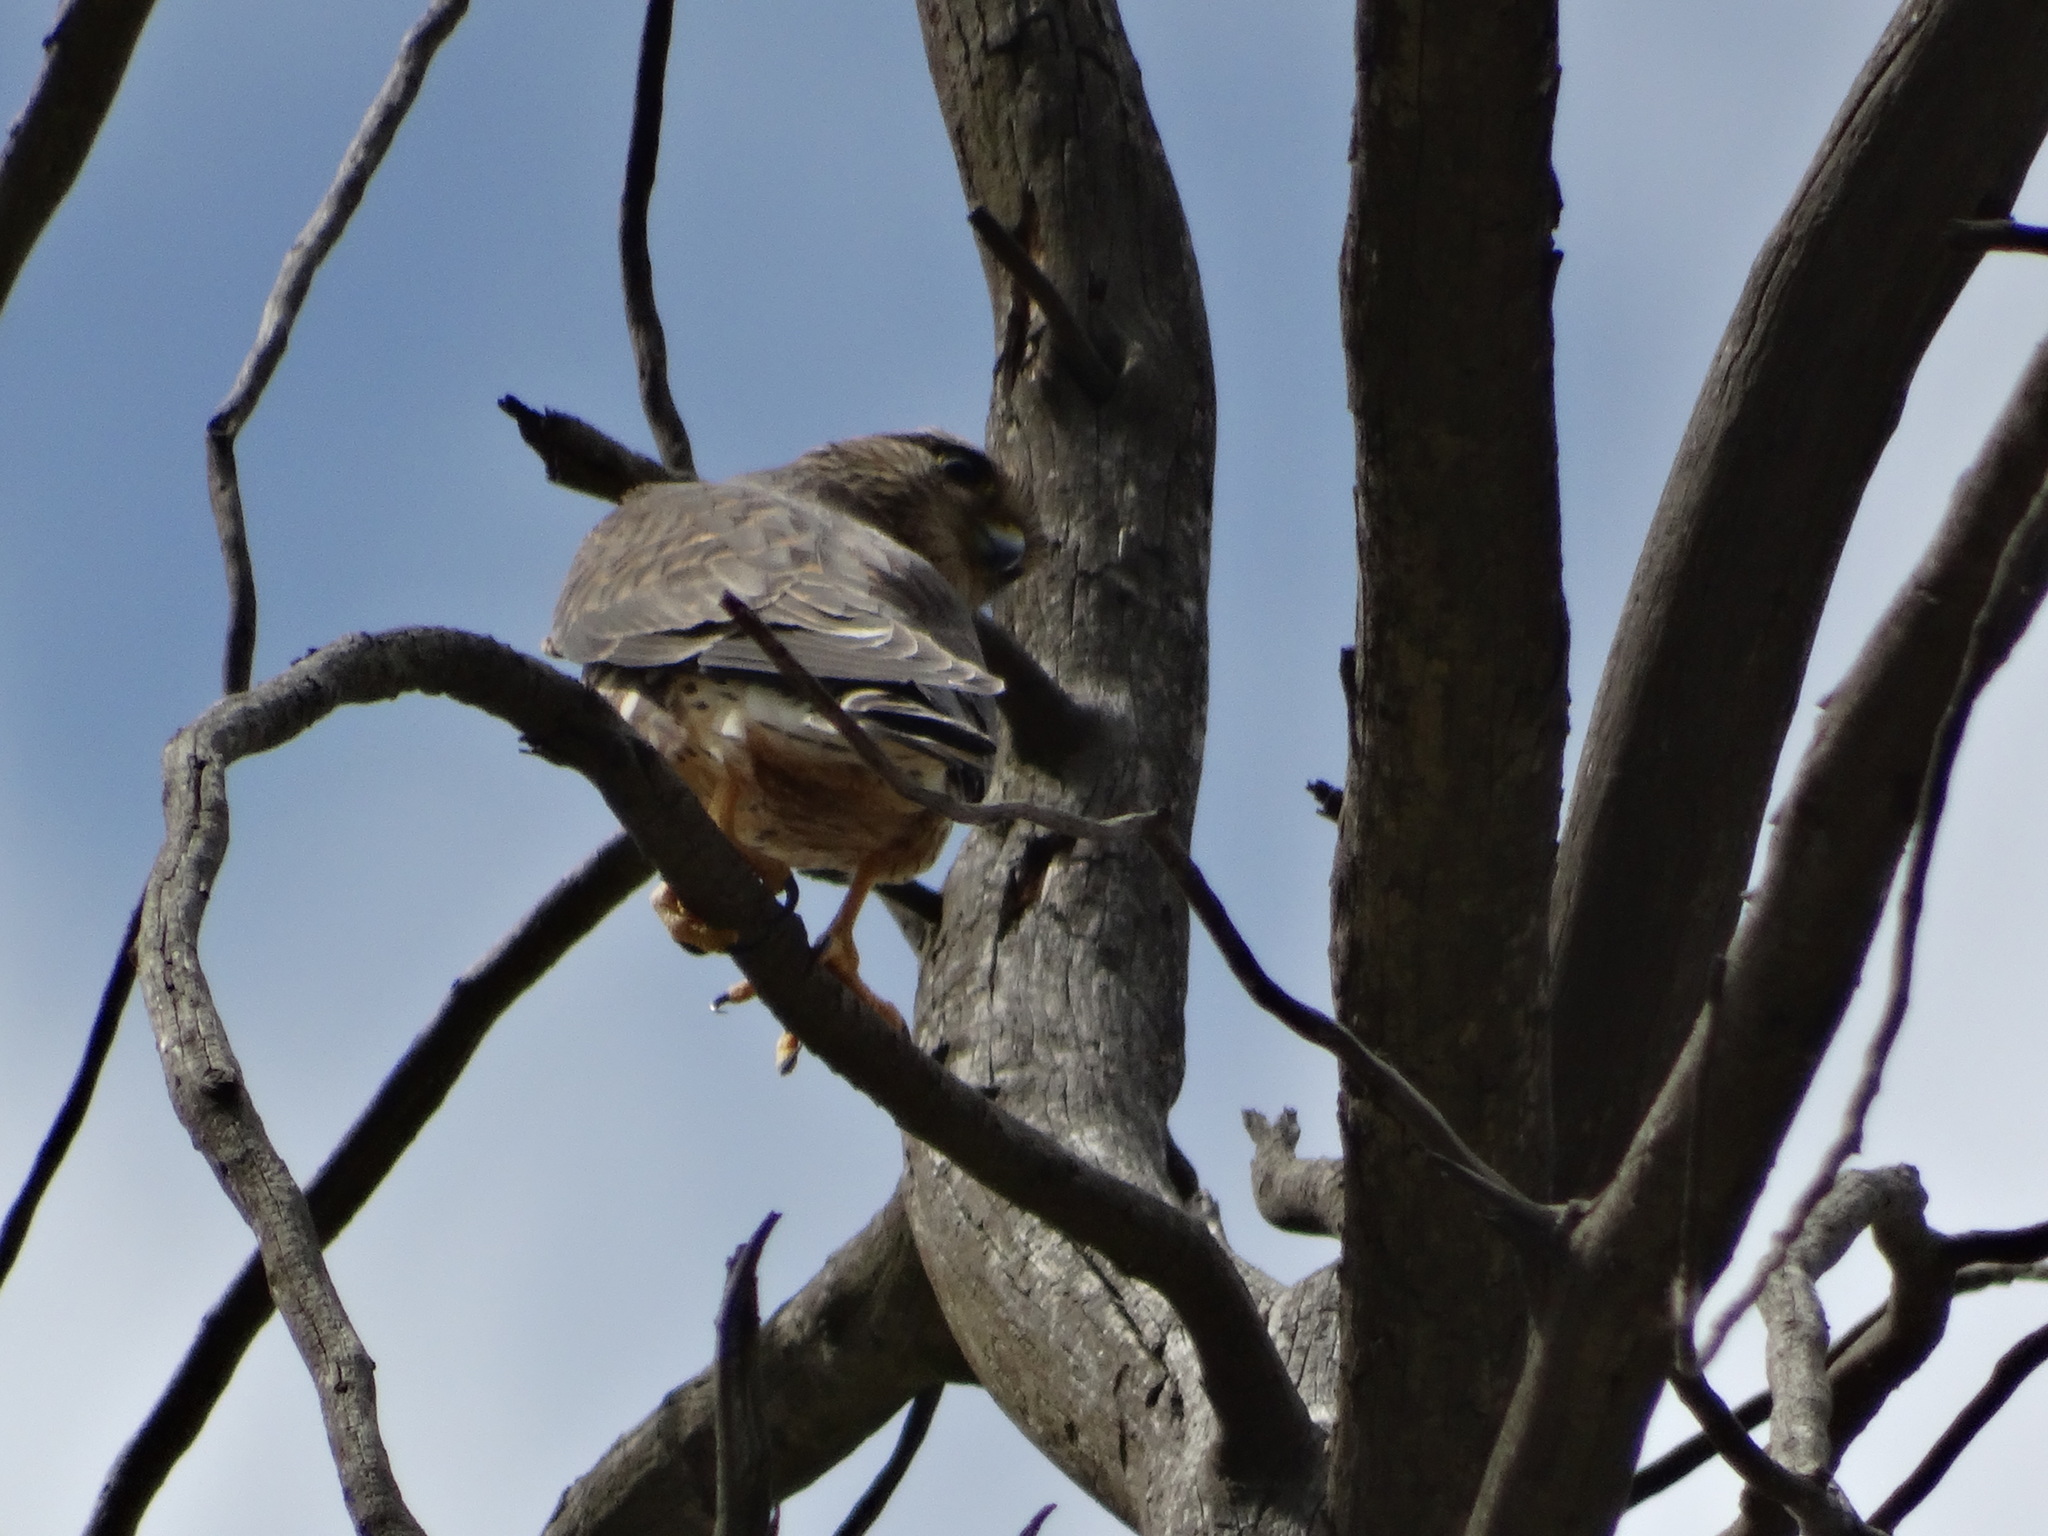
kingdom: Animalia
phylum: Chordata
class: Aves
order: Falconiformes
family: Falconidae
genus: Falco
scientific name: Falco columbarius
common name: Merlin
